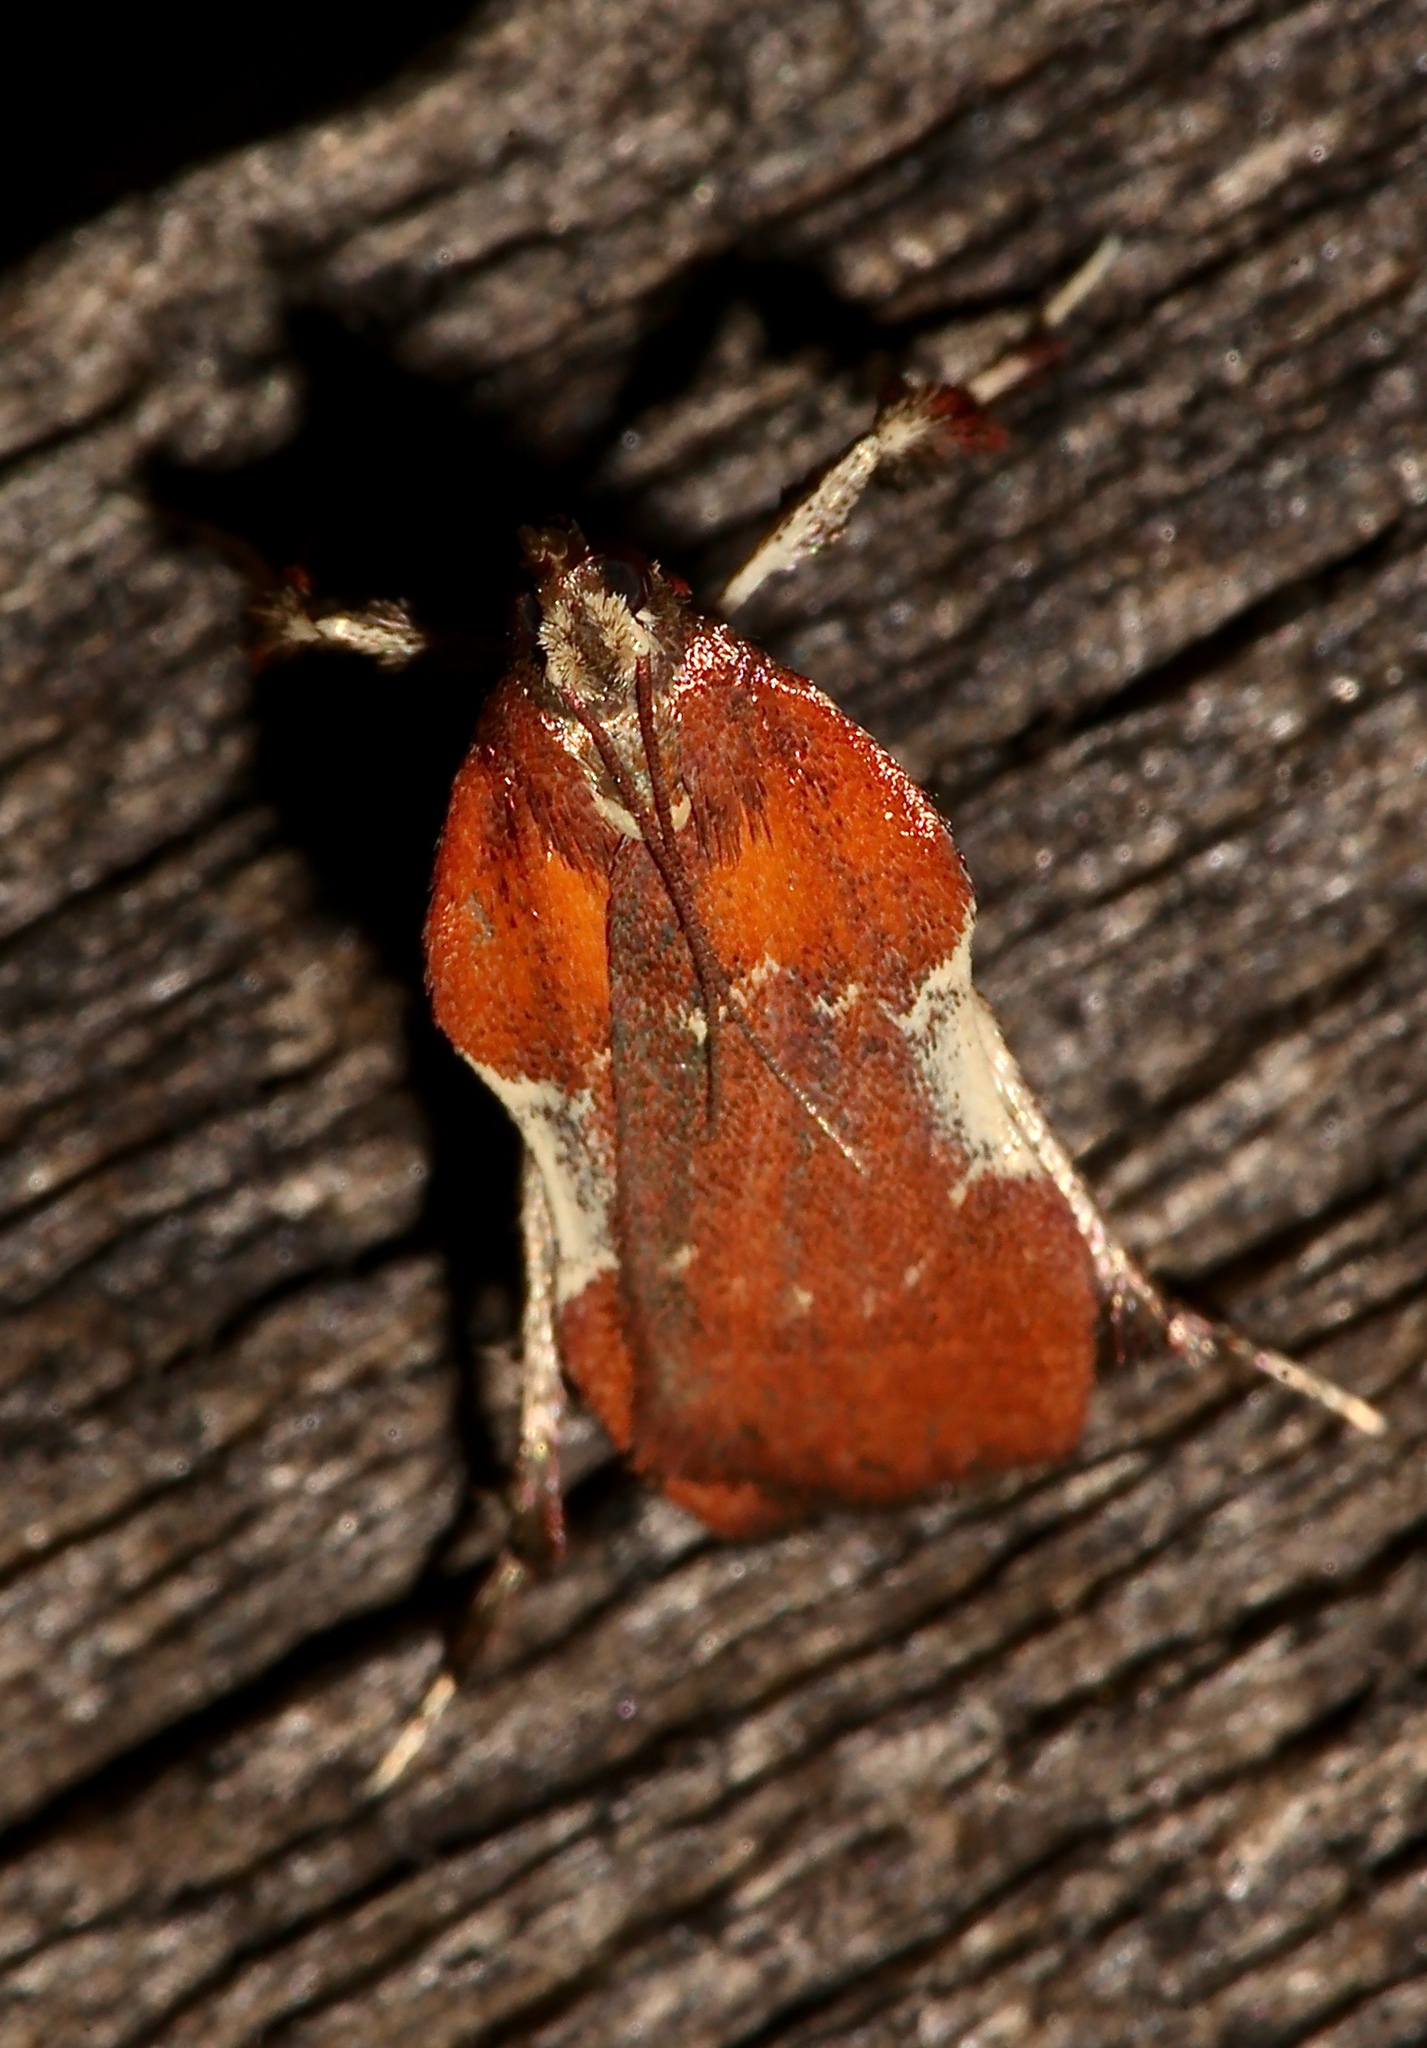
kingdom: Animalia
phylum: Arthropoda
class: Insecta
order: Lepidoptera
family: Pyralidae
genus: Galasa
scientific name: Galasa nigrinodis
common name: Boxwood leaftier moth
